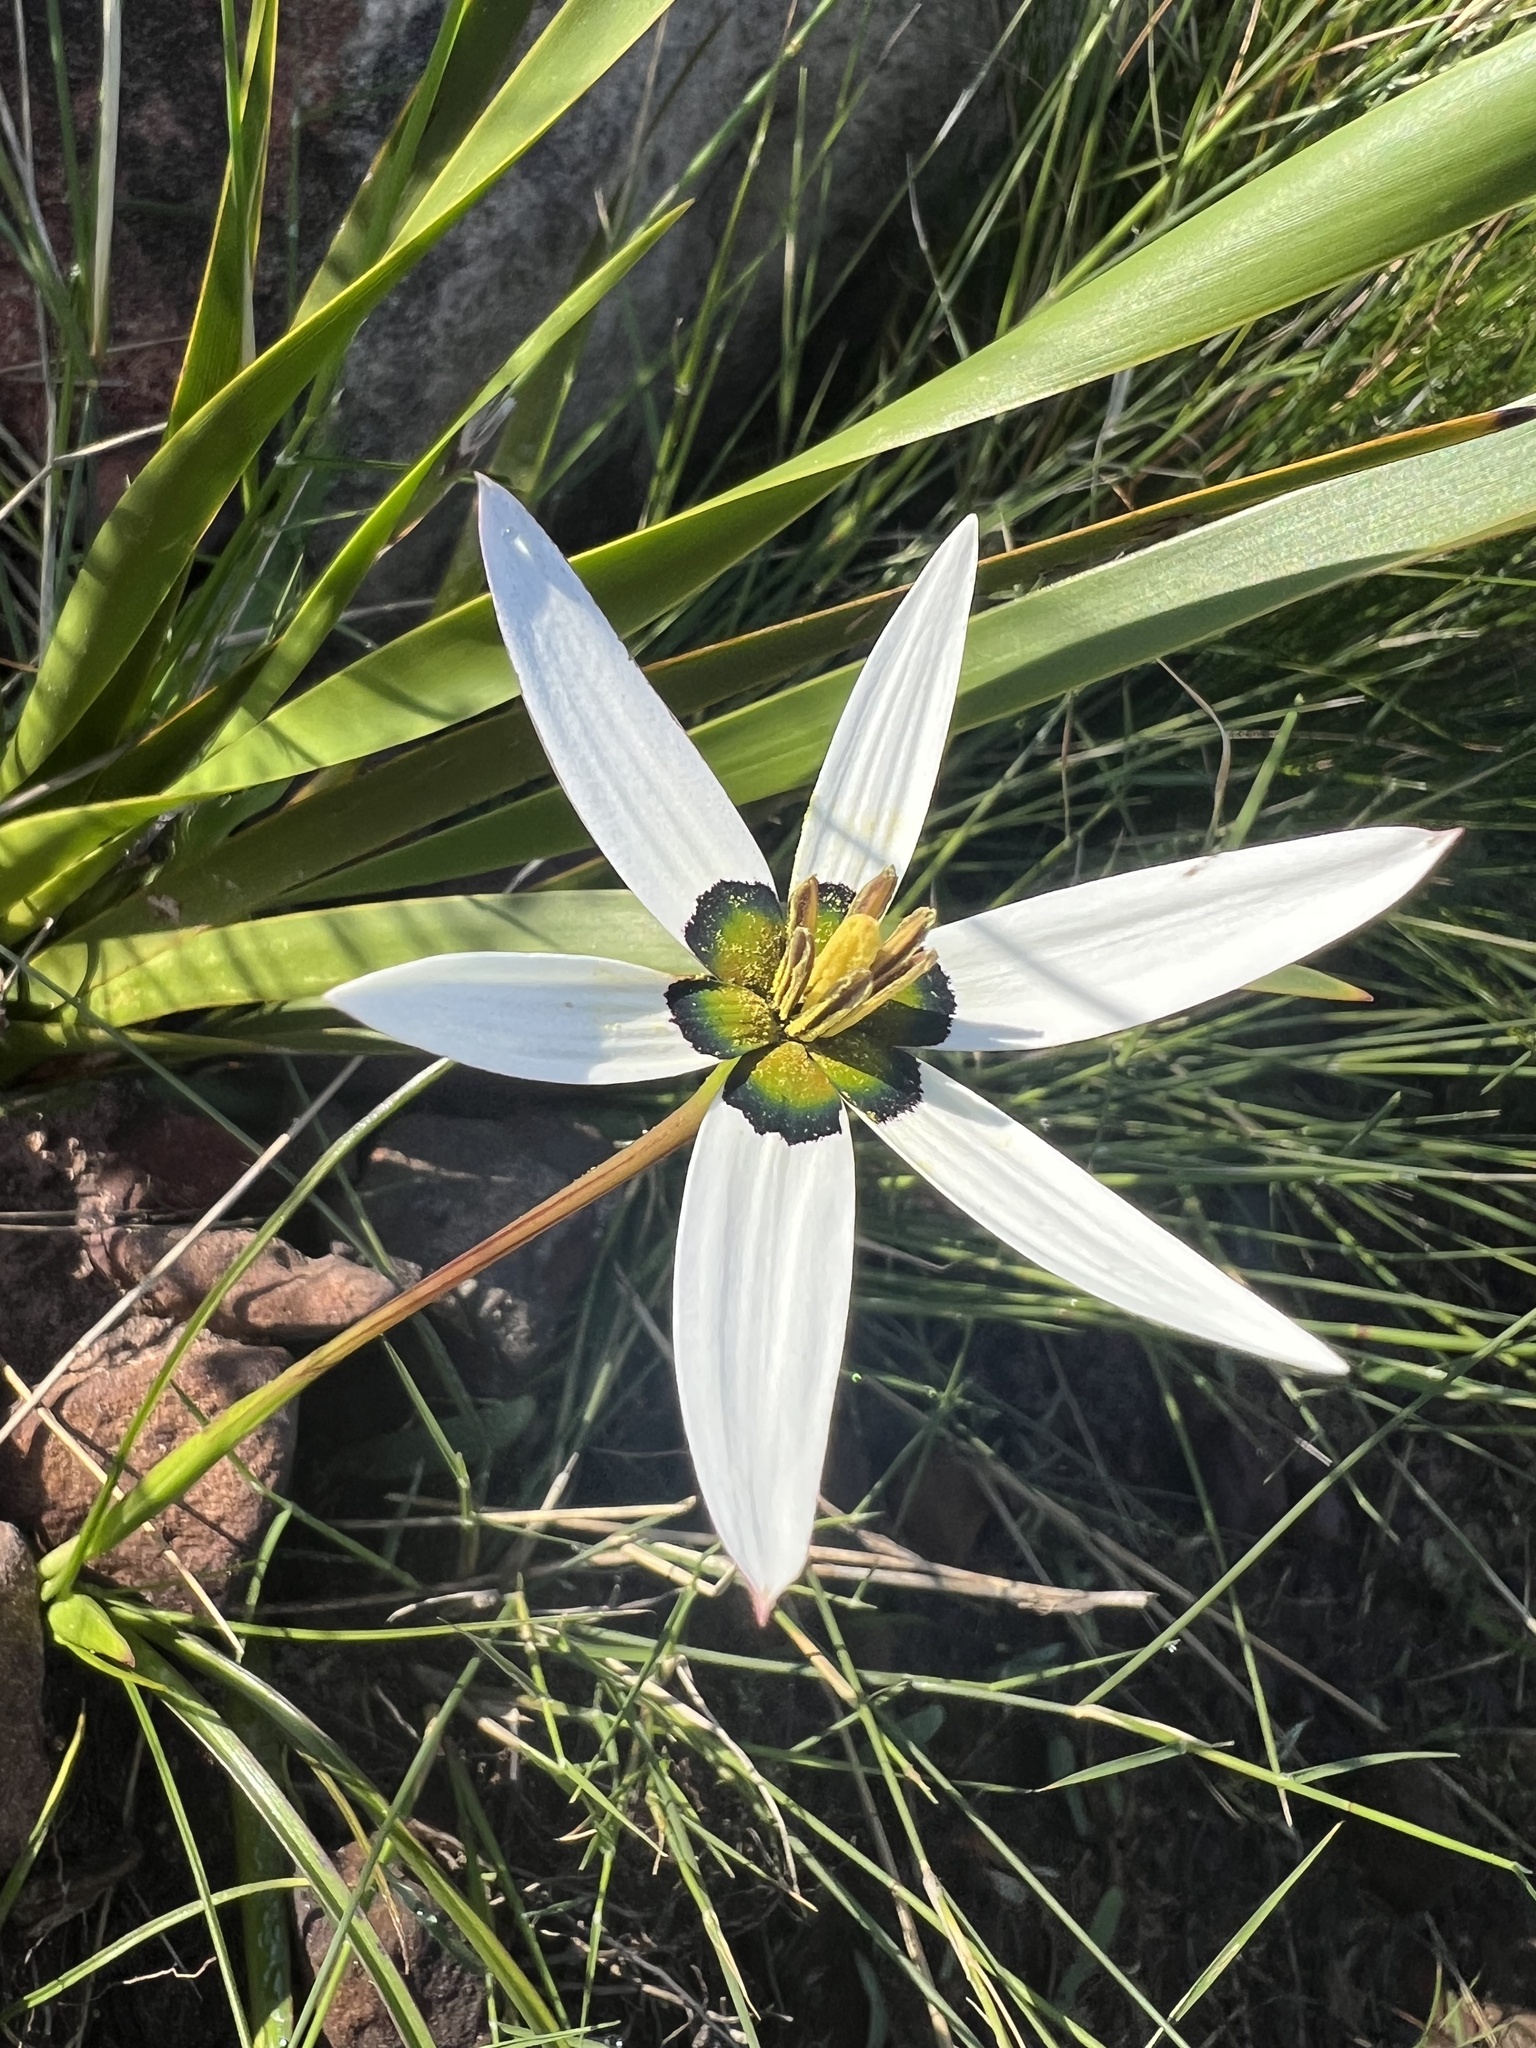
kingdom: Plantae
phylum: Tracheophyta
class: Liliopsida
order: Asparagales
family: Hypoxidaceae
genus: Pauridia
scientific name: Pauridia capensis
